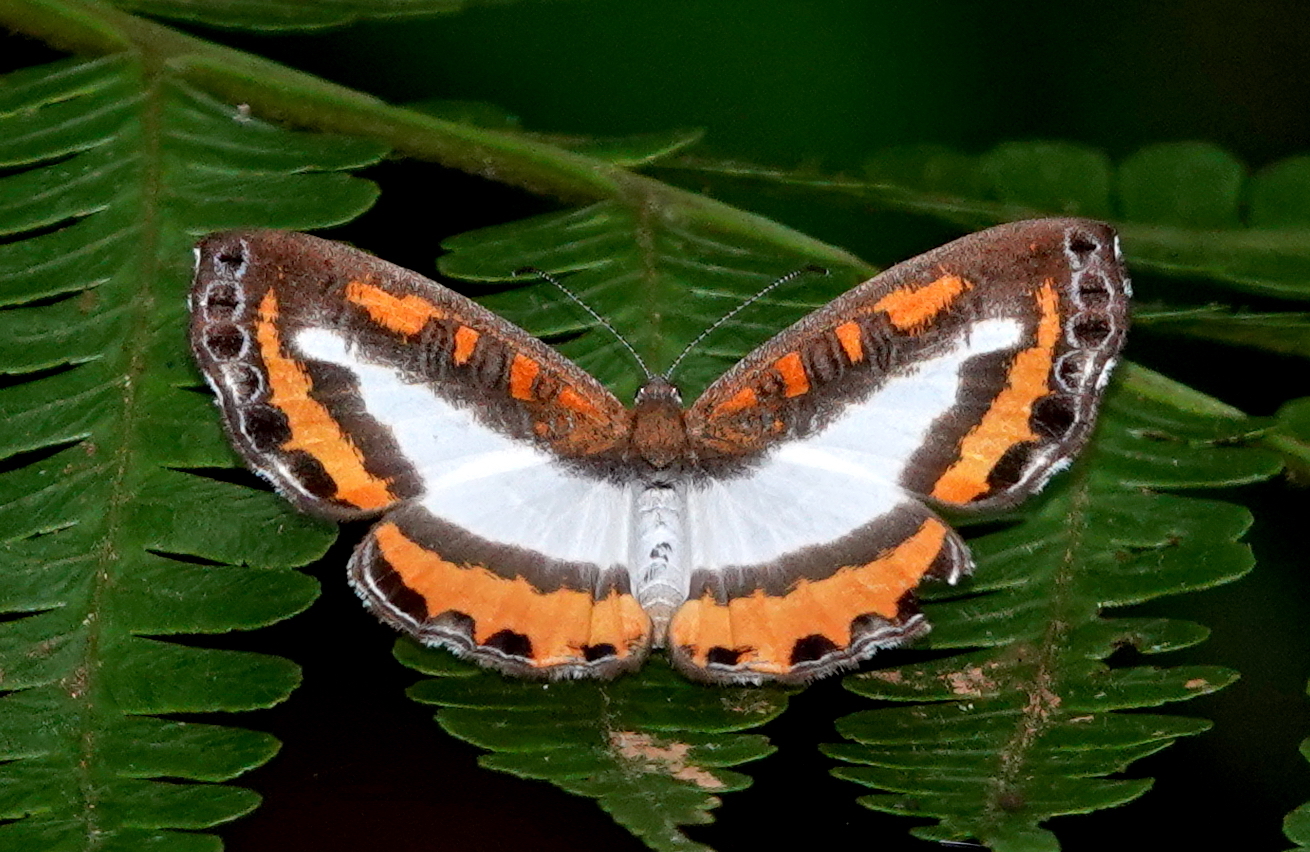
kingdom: Animalia
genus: Nymphidium
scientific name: Nymphidium lisimon
